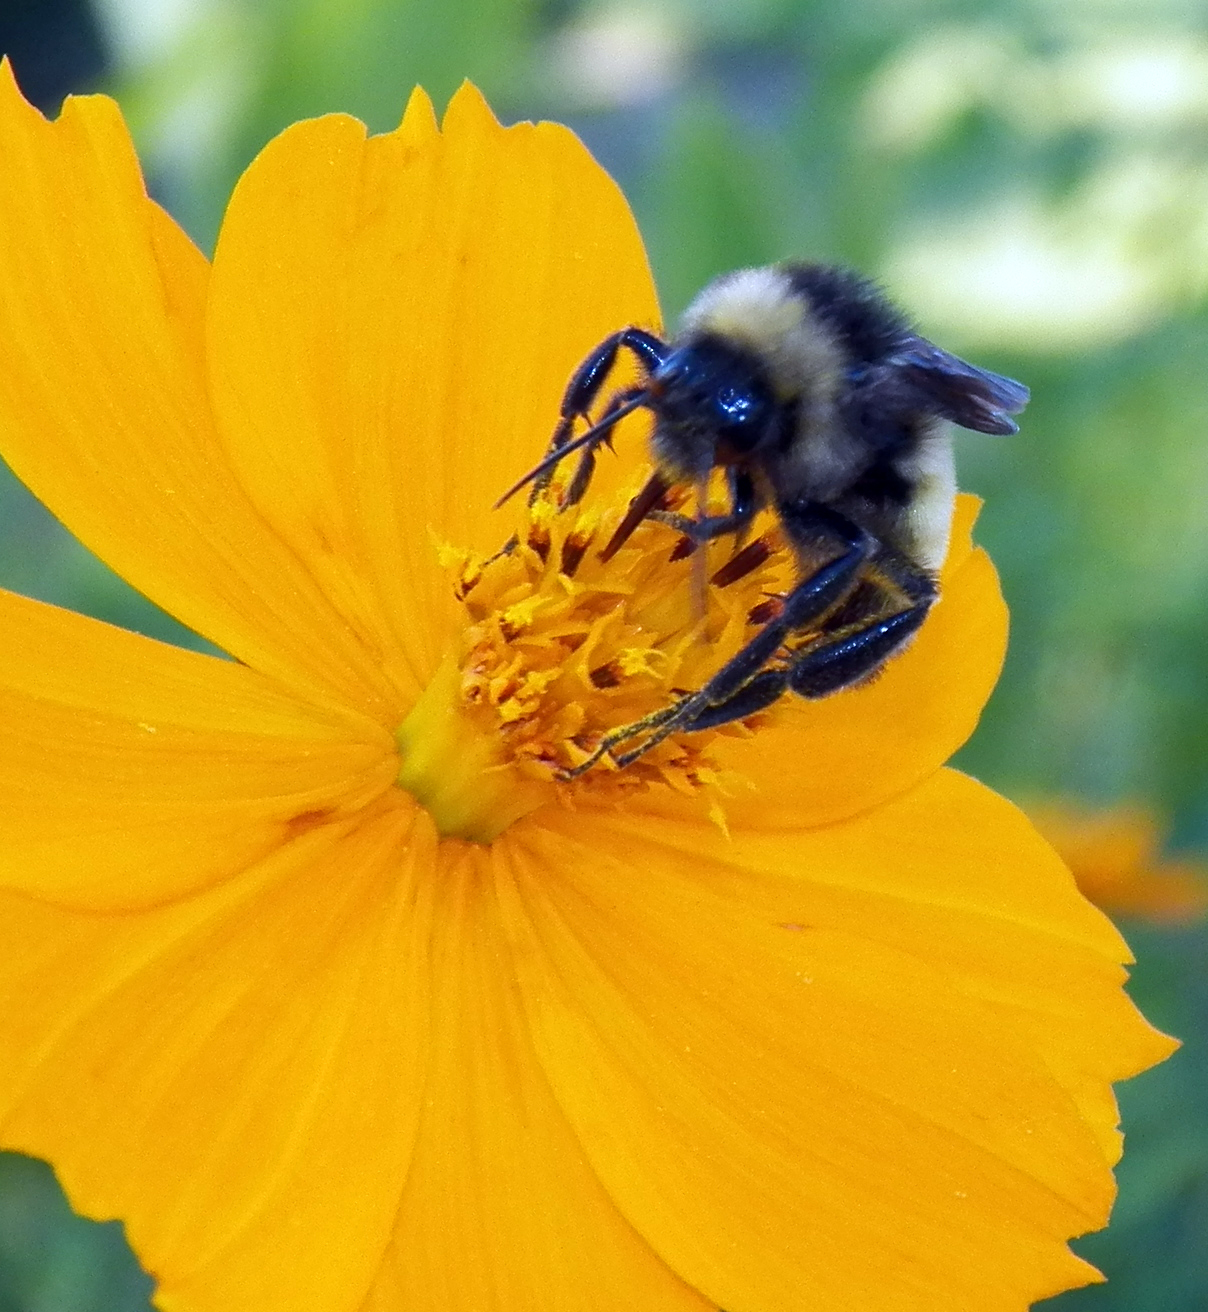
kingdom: Animalia
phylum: Arthropoda
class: Insecta
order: Hymenoptera
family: Apidae
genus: Bombus
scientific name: Bombus pensylvanicus
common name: Bumble bee
